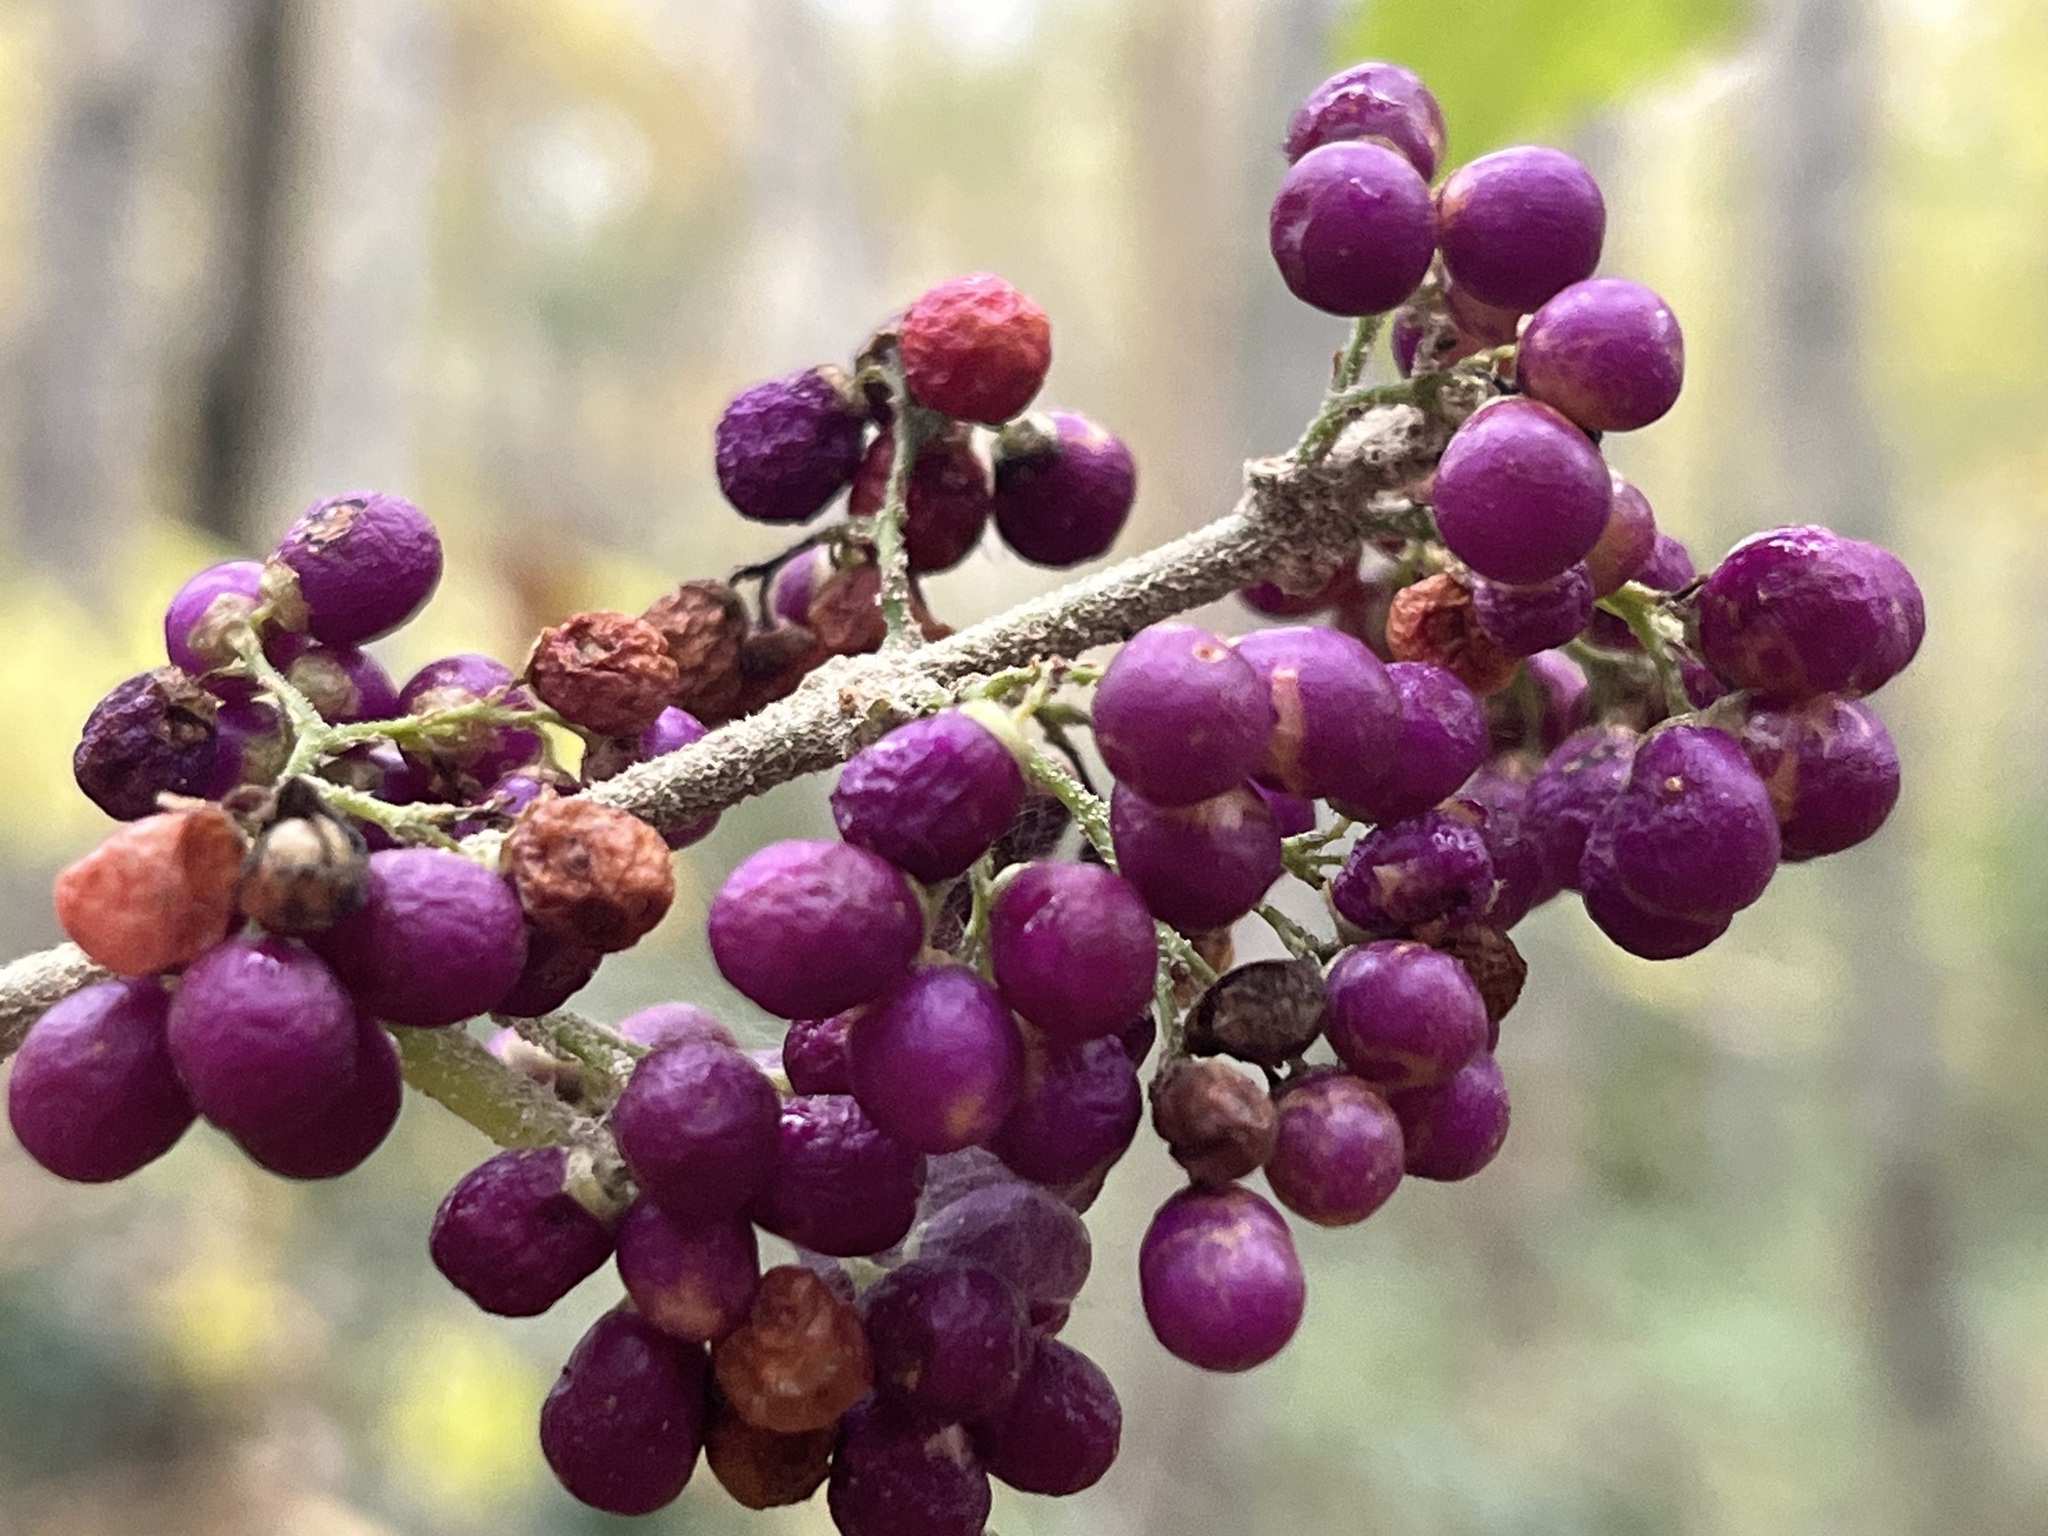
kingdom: Plantae
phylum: Tracheophyta
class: Magnoliopsida
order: Lamiales
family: Lamiaceae
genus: Callicarpa
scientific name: Callicarpa americana
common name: American beautyberry
